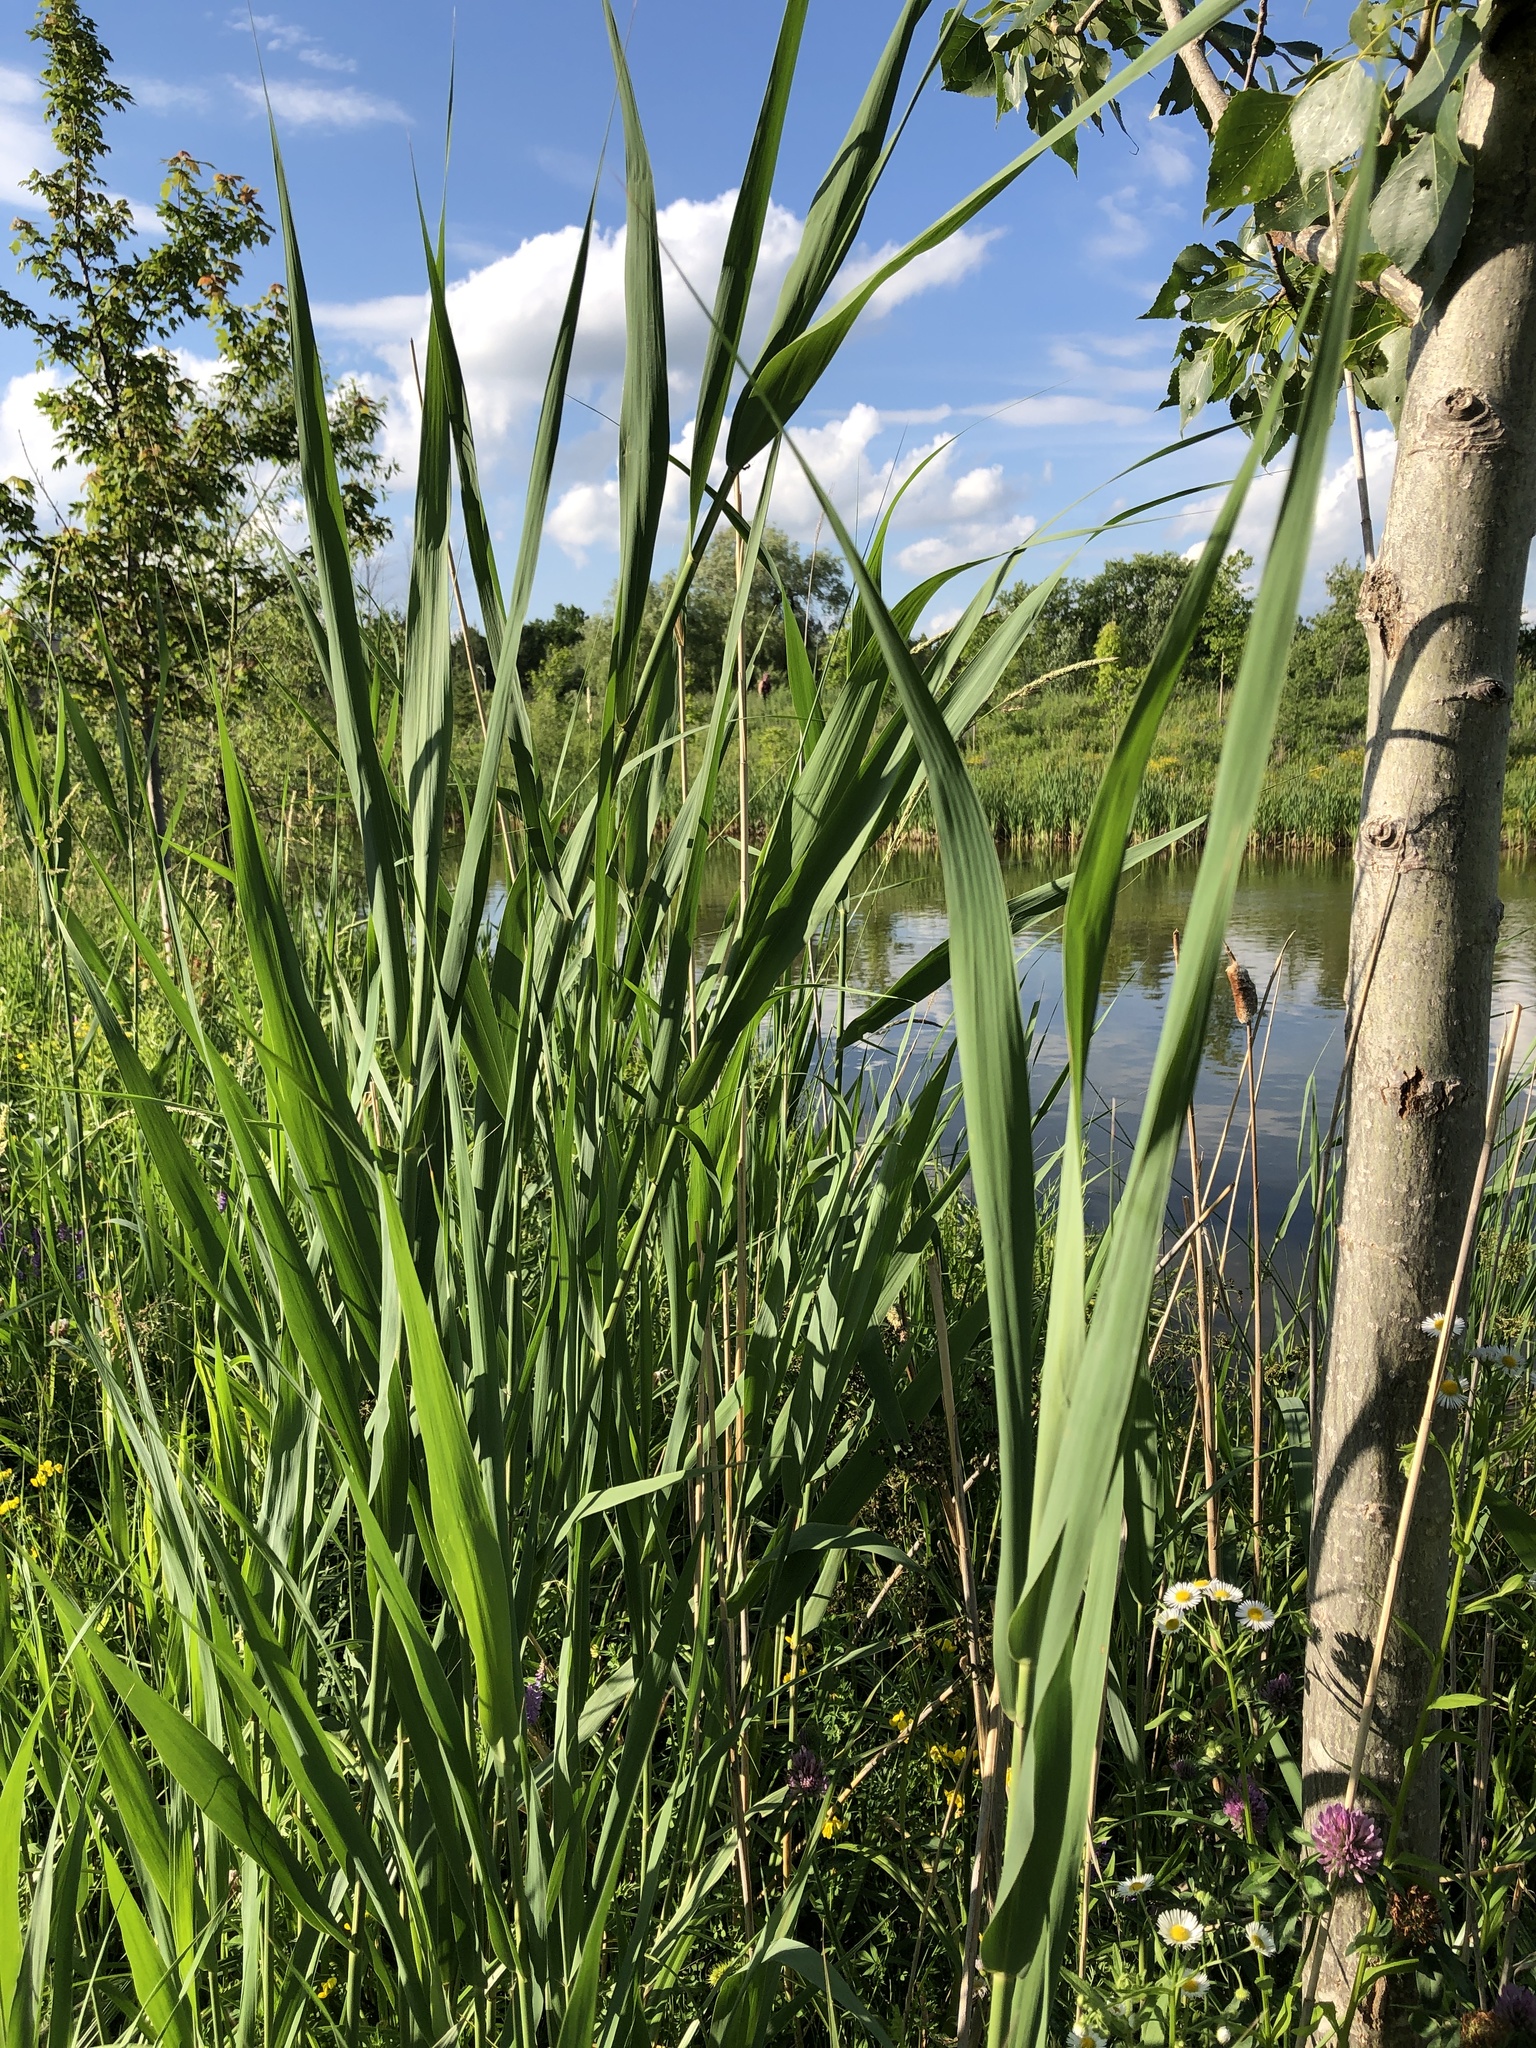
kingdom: Plantae
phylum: Tracheophyta
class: Liliopsida
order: Poales
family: Poaceae
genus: Phragmites
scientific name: Phragmites australis
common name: Common reed
